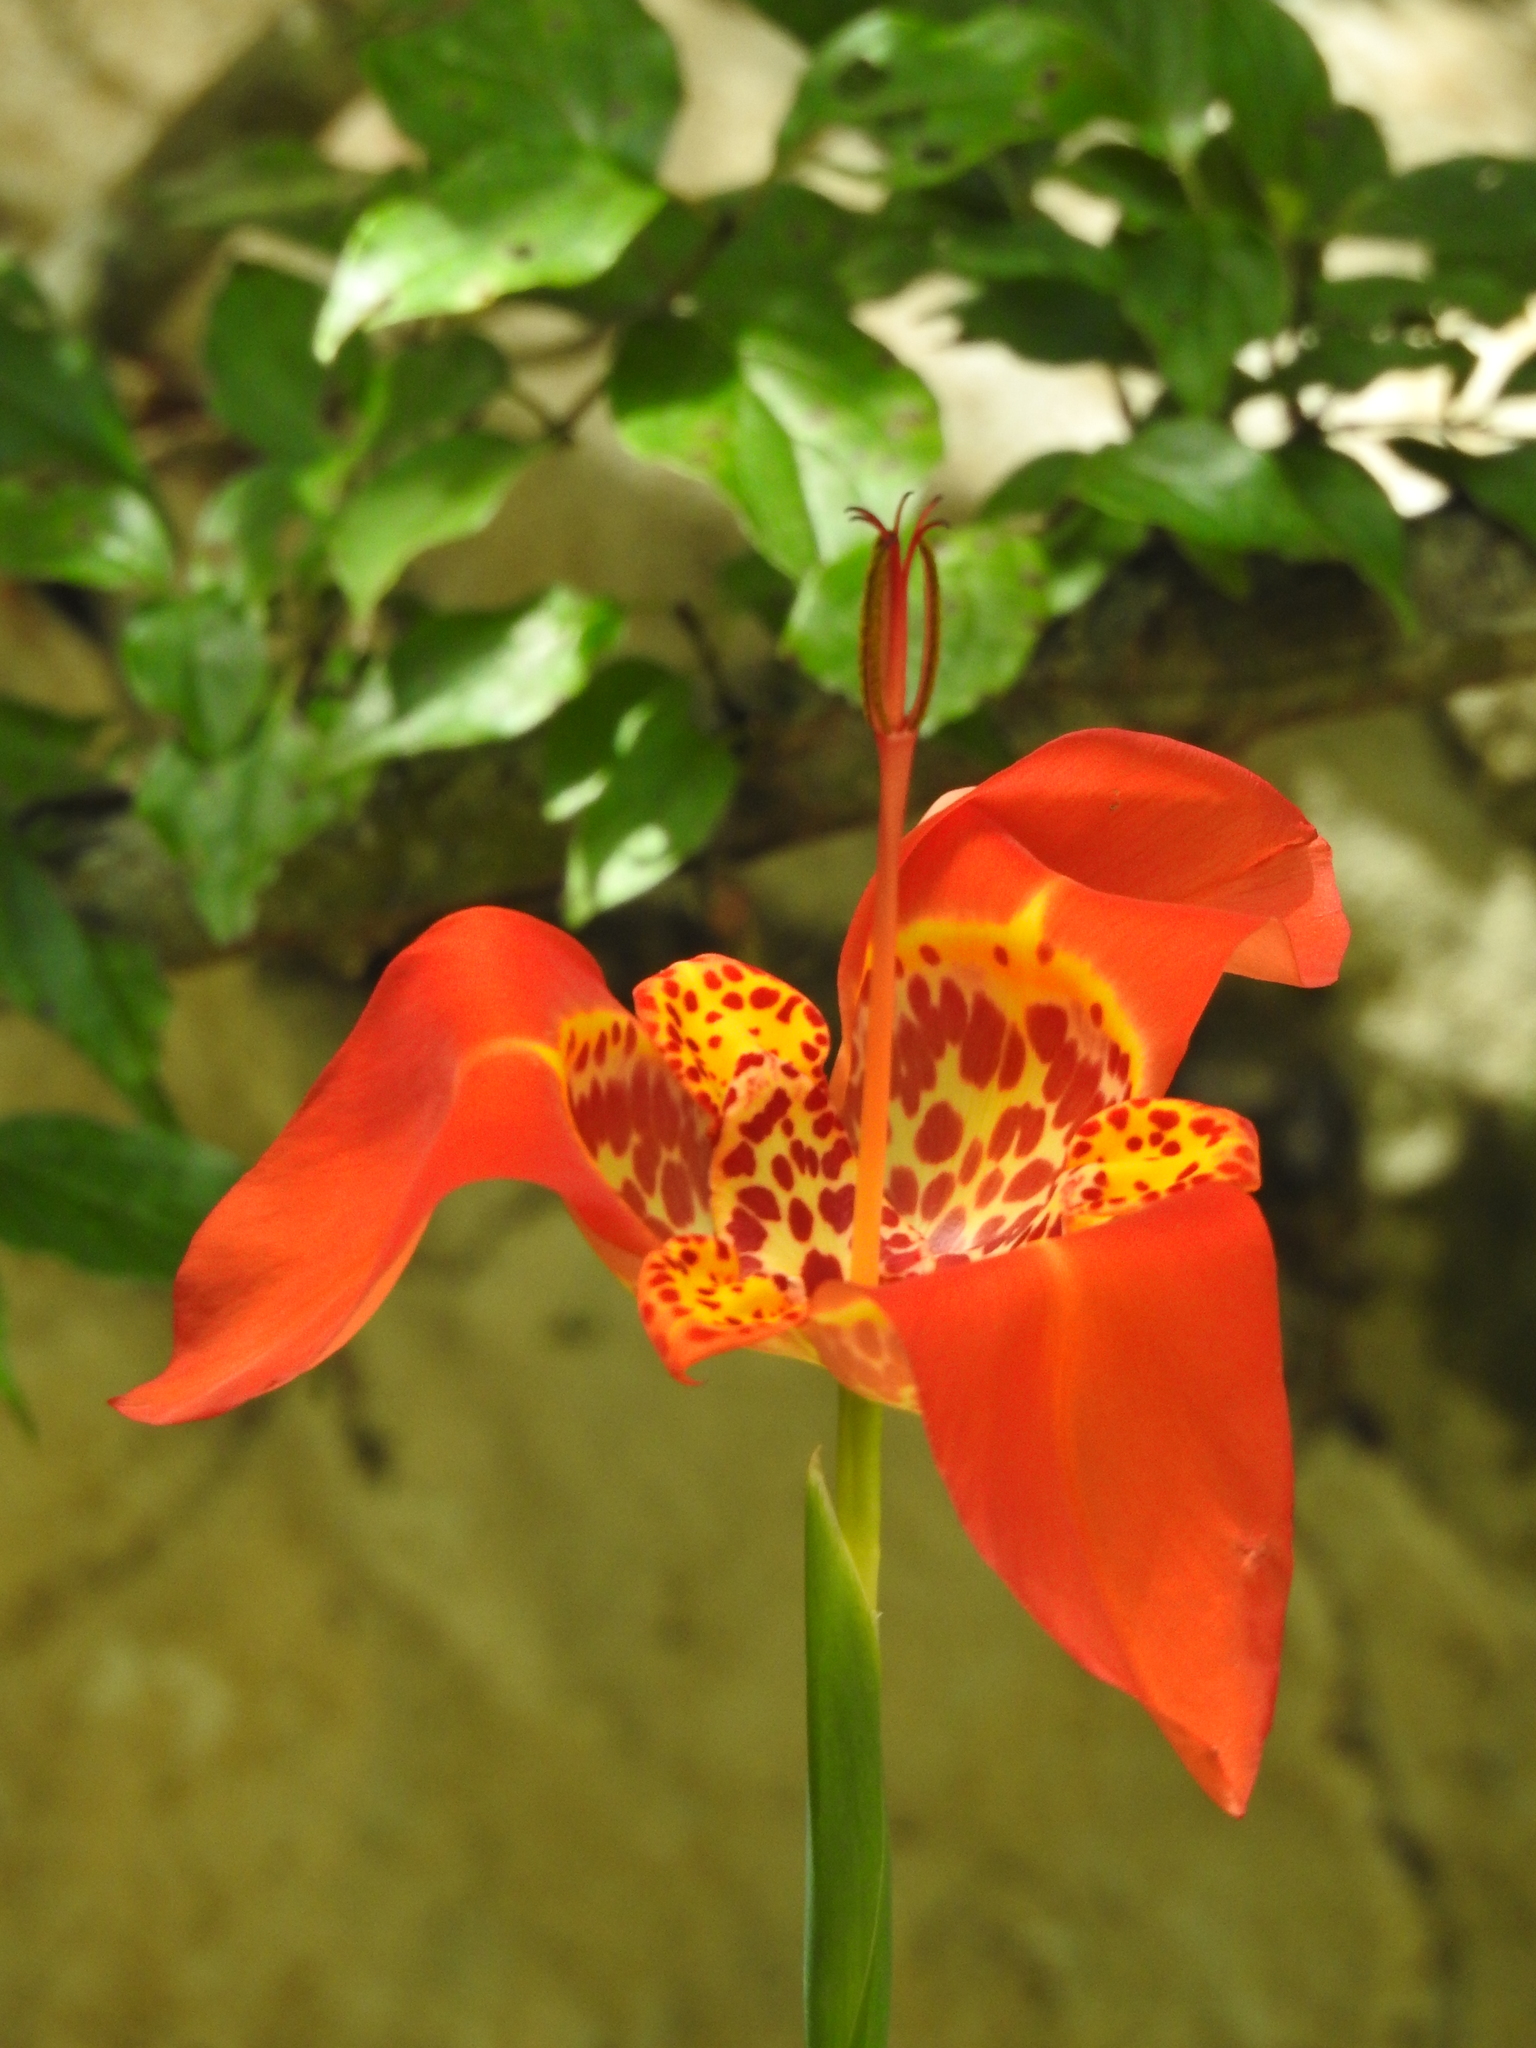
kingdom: Plantae
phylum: Tracheophyta
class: Liliopsida
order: Asparagales
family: Iridaceae
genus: Tigridia
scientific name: Tigridia pavonia
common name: Peacock-flower
